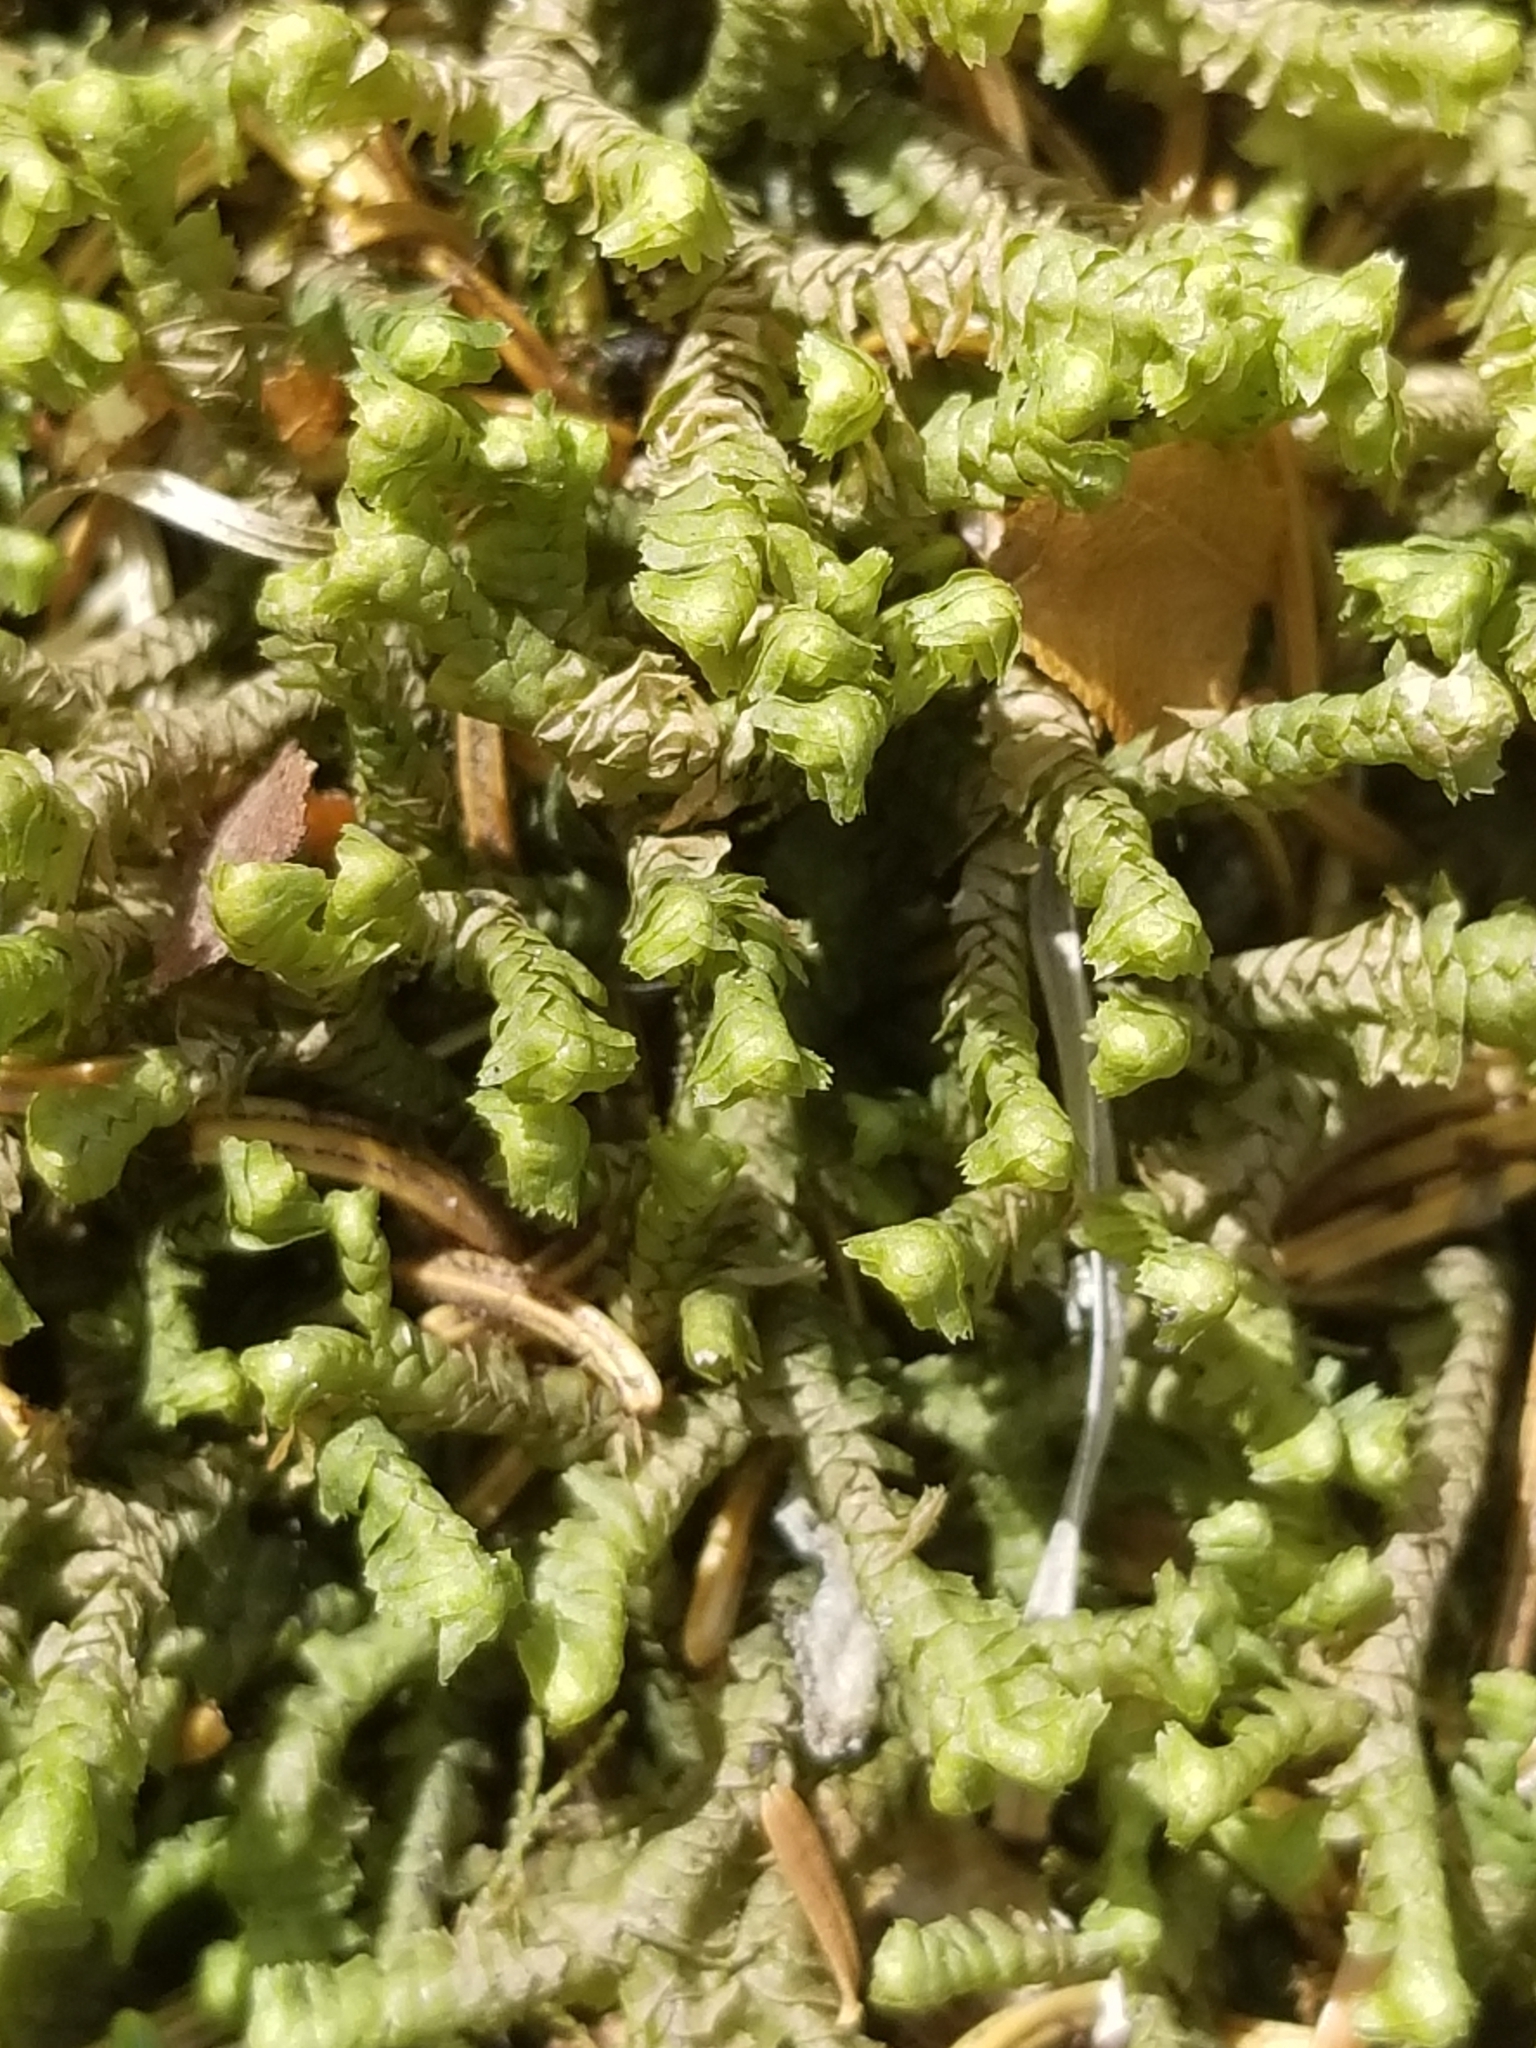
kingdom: Plantae
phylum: Marchantiophyta
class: Jungermanniopsida
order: Jungermanniales
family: Lepidoziaceae
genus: Bazzania
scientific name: Bazzania trilobata
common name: Three-lobed whipwort
